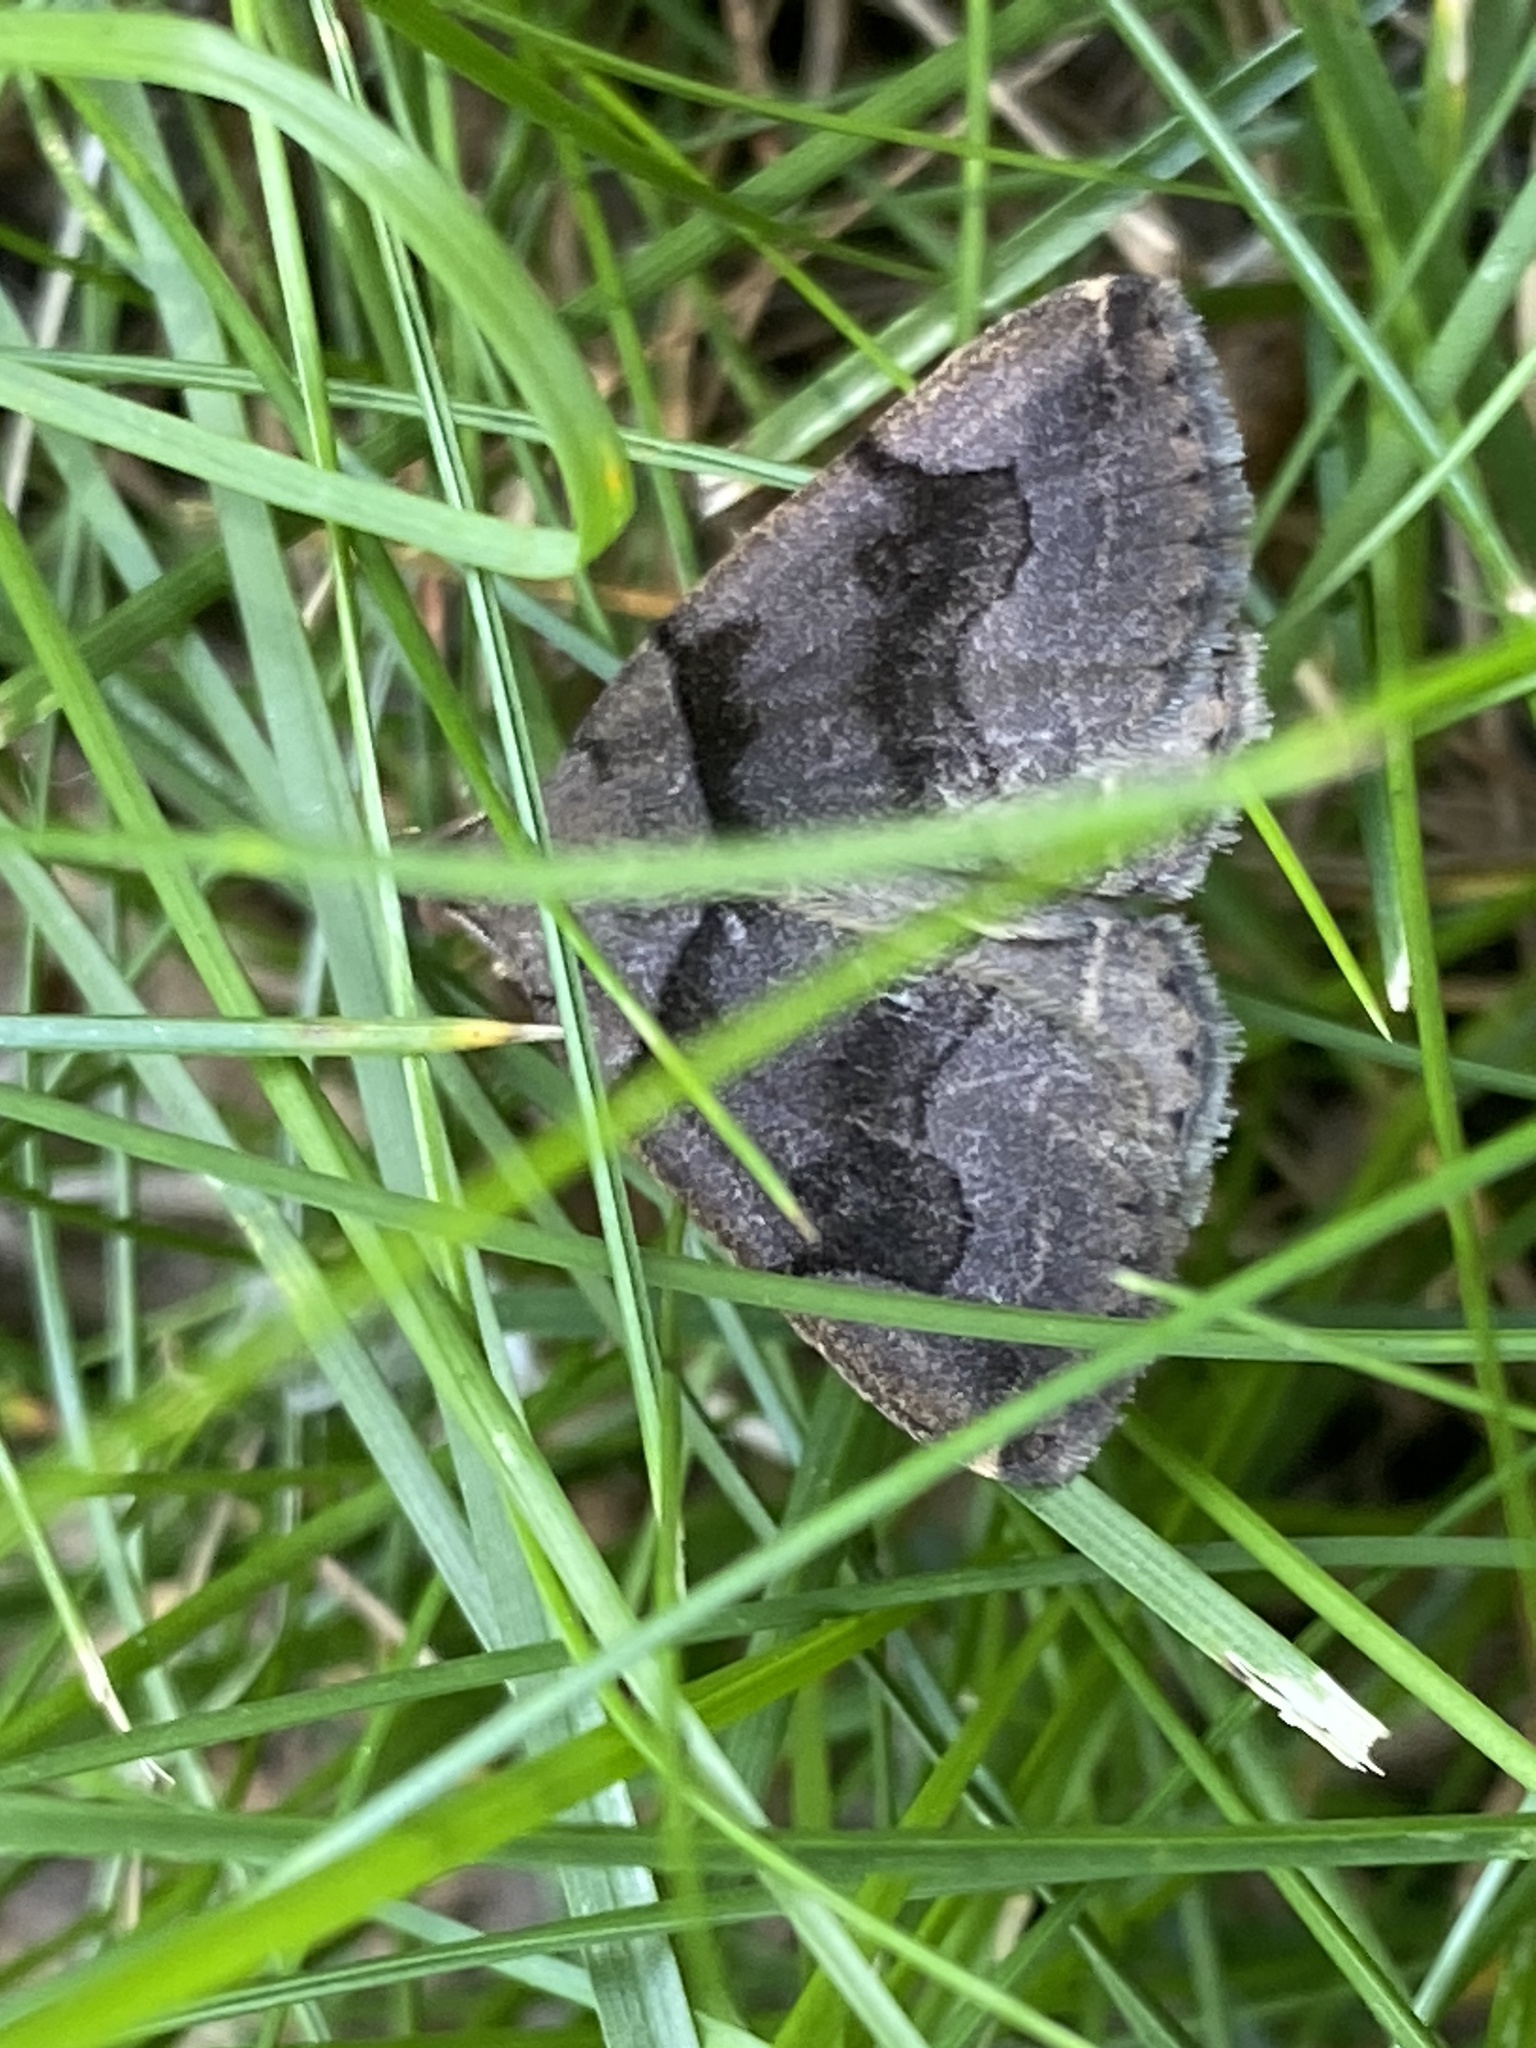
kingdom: Animalia
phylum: Arthropoda
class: Insecta
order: Lepidoptera
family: Erebidae
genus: Zanclognatha
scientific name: Zanclognatha laevigata
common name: Variable fan-foot
